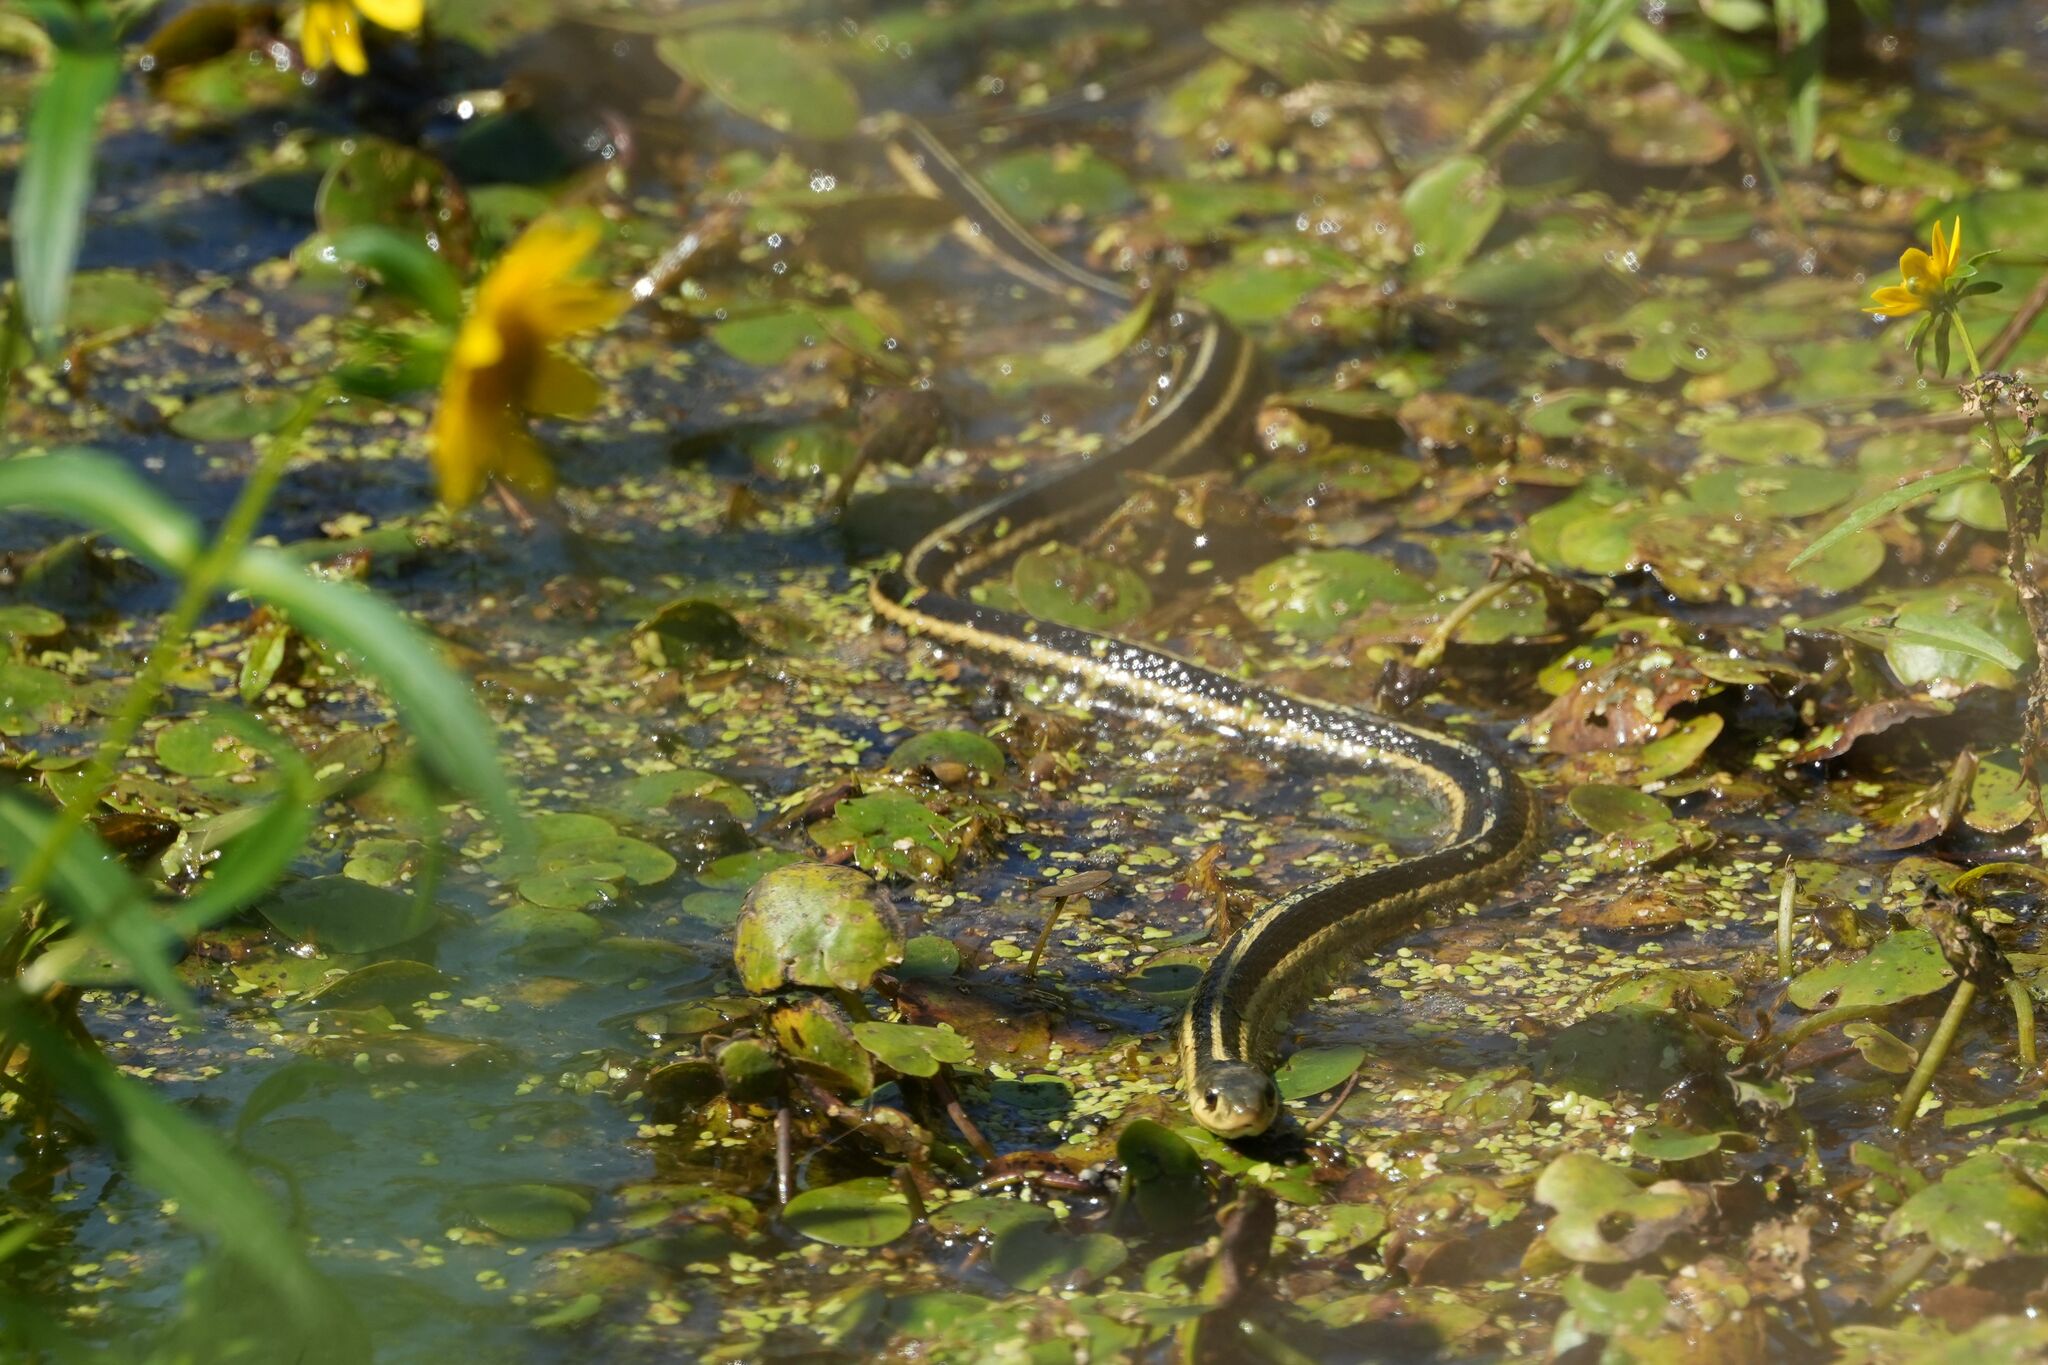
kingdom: Animalia
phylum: Chordata
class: Squamata
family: Colubridae
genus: Thamnophis
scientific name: Thamnophis sirtalis
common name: Common garter snake
